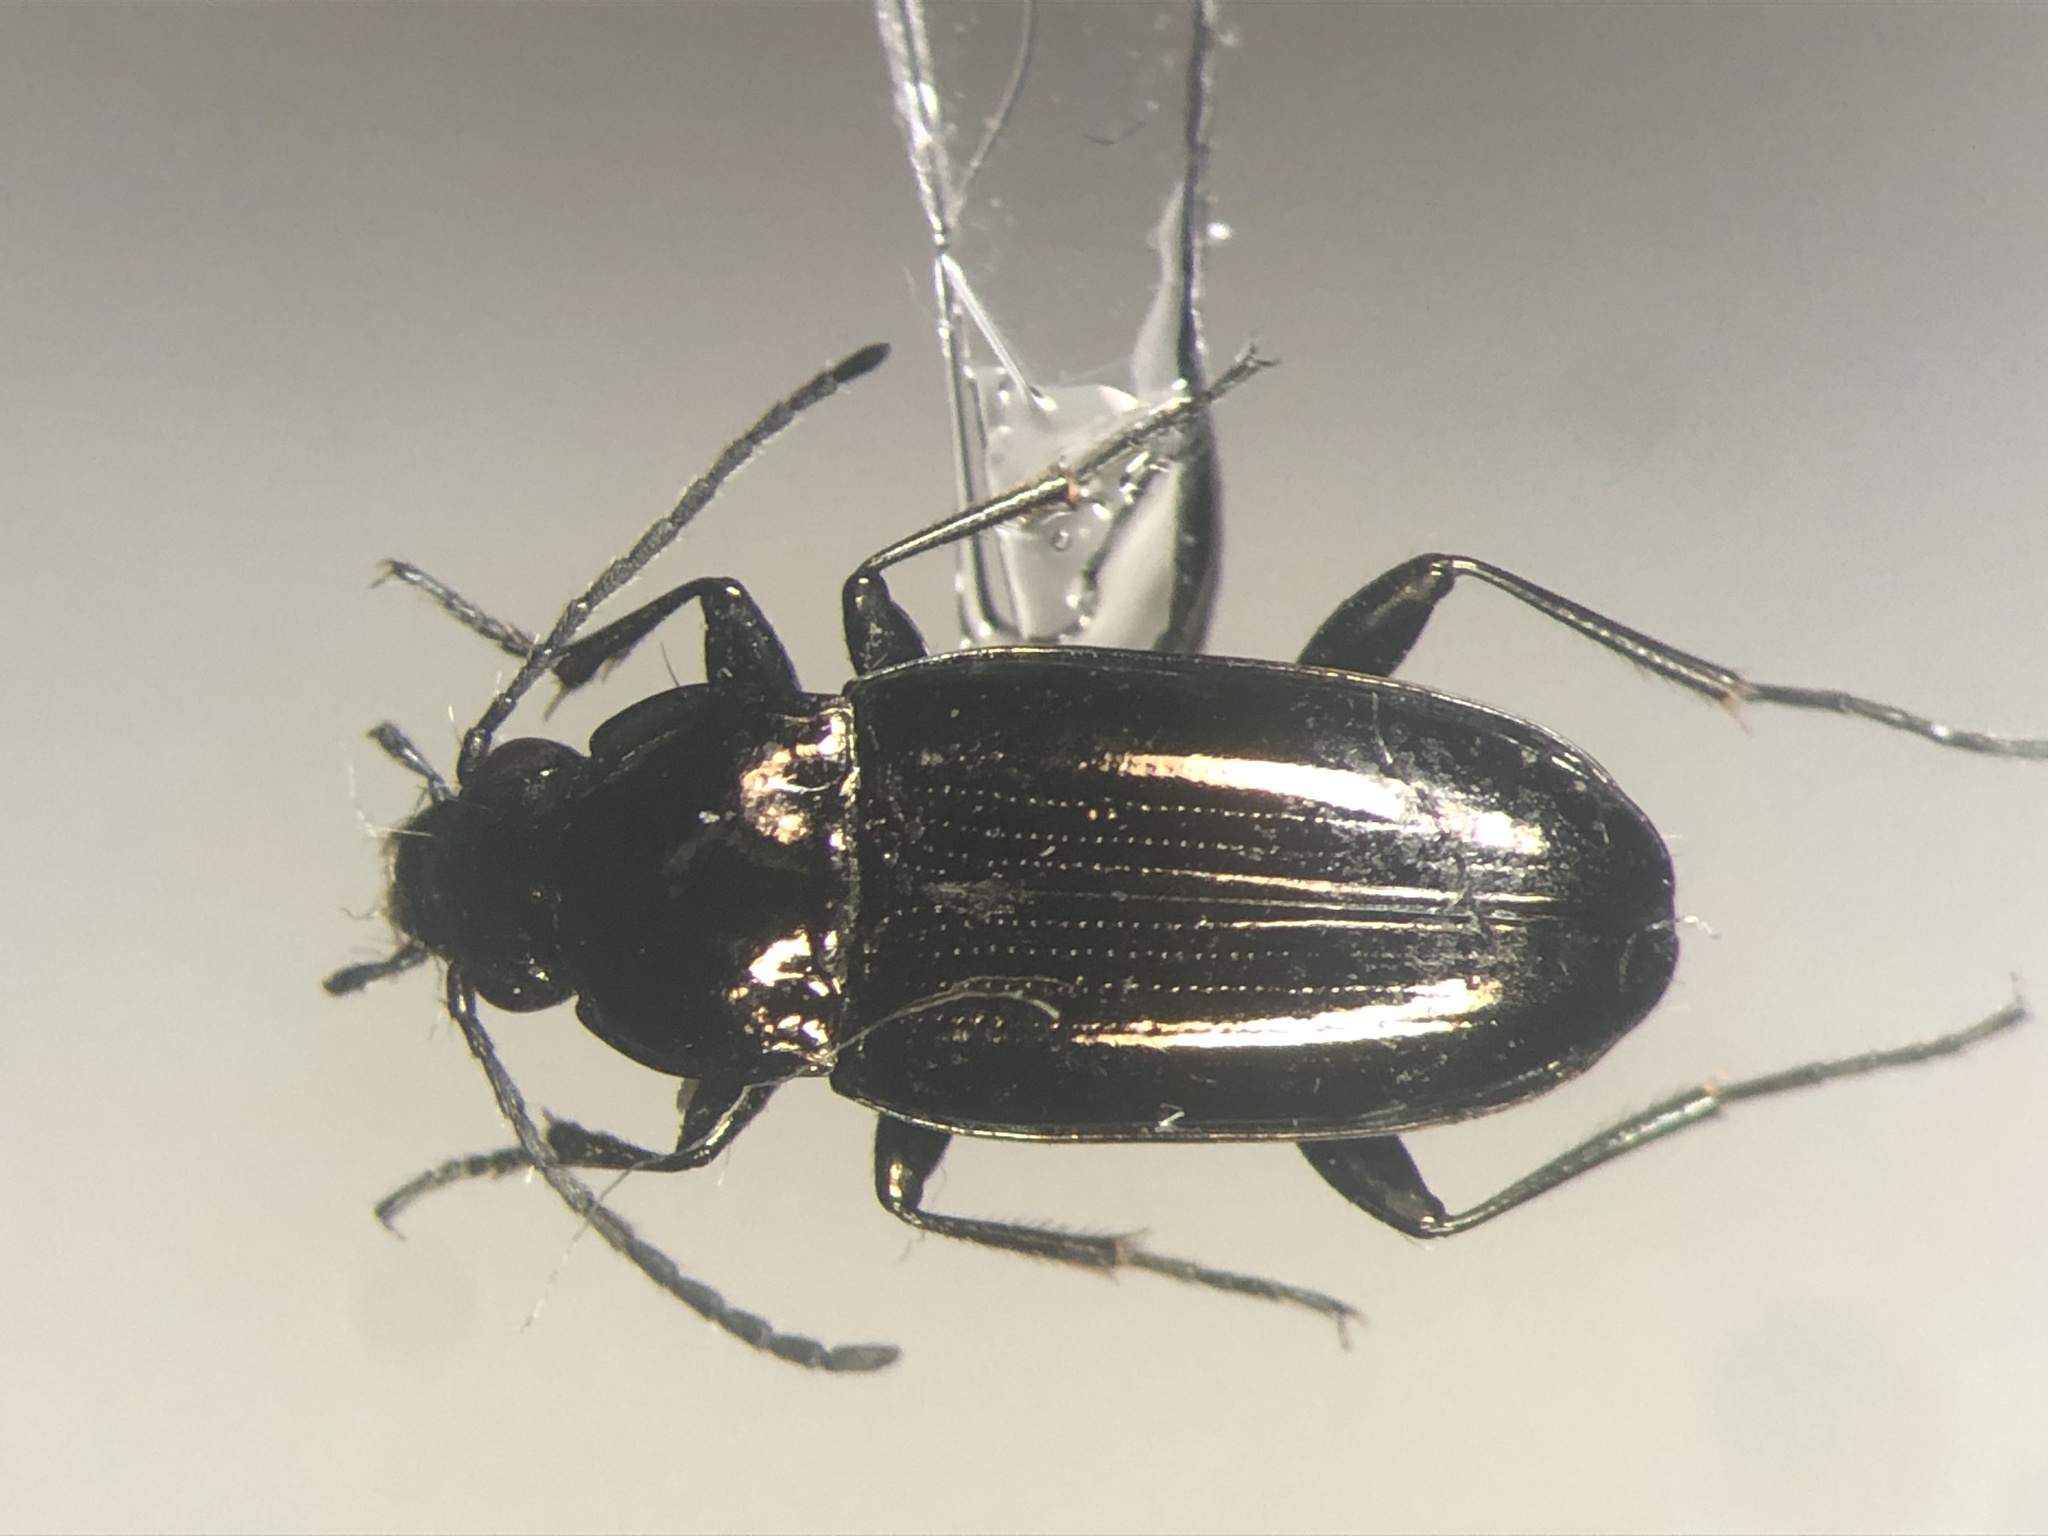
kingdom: Animalia
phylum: Arthropoda
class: Insecta
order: Coleoptera
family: Carabidae
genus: Bembidion
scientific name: Bembidion nitidum
